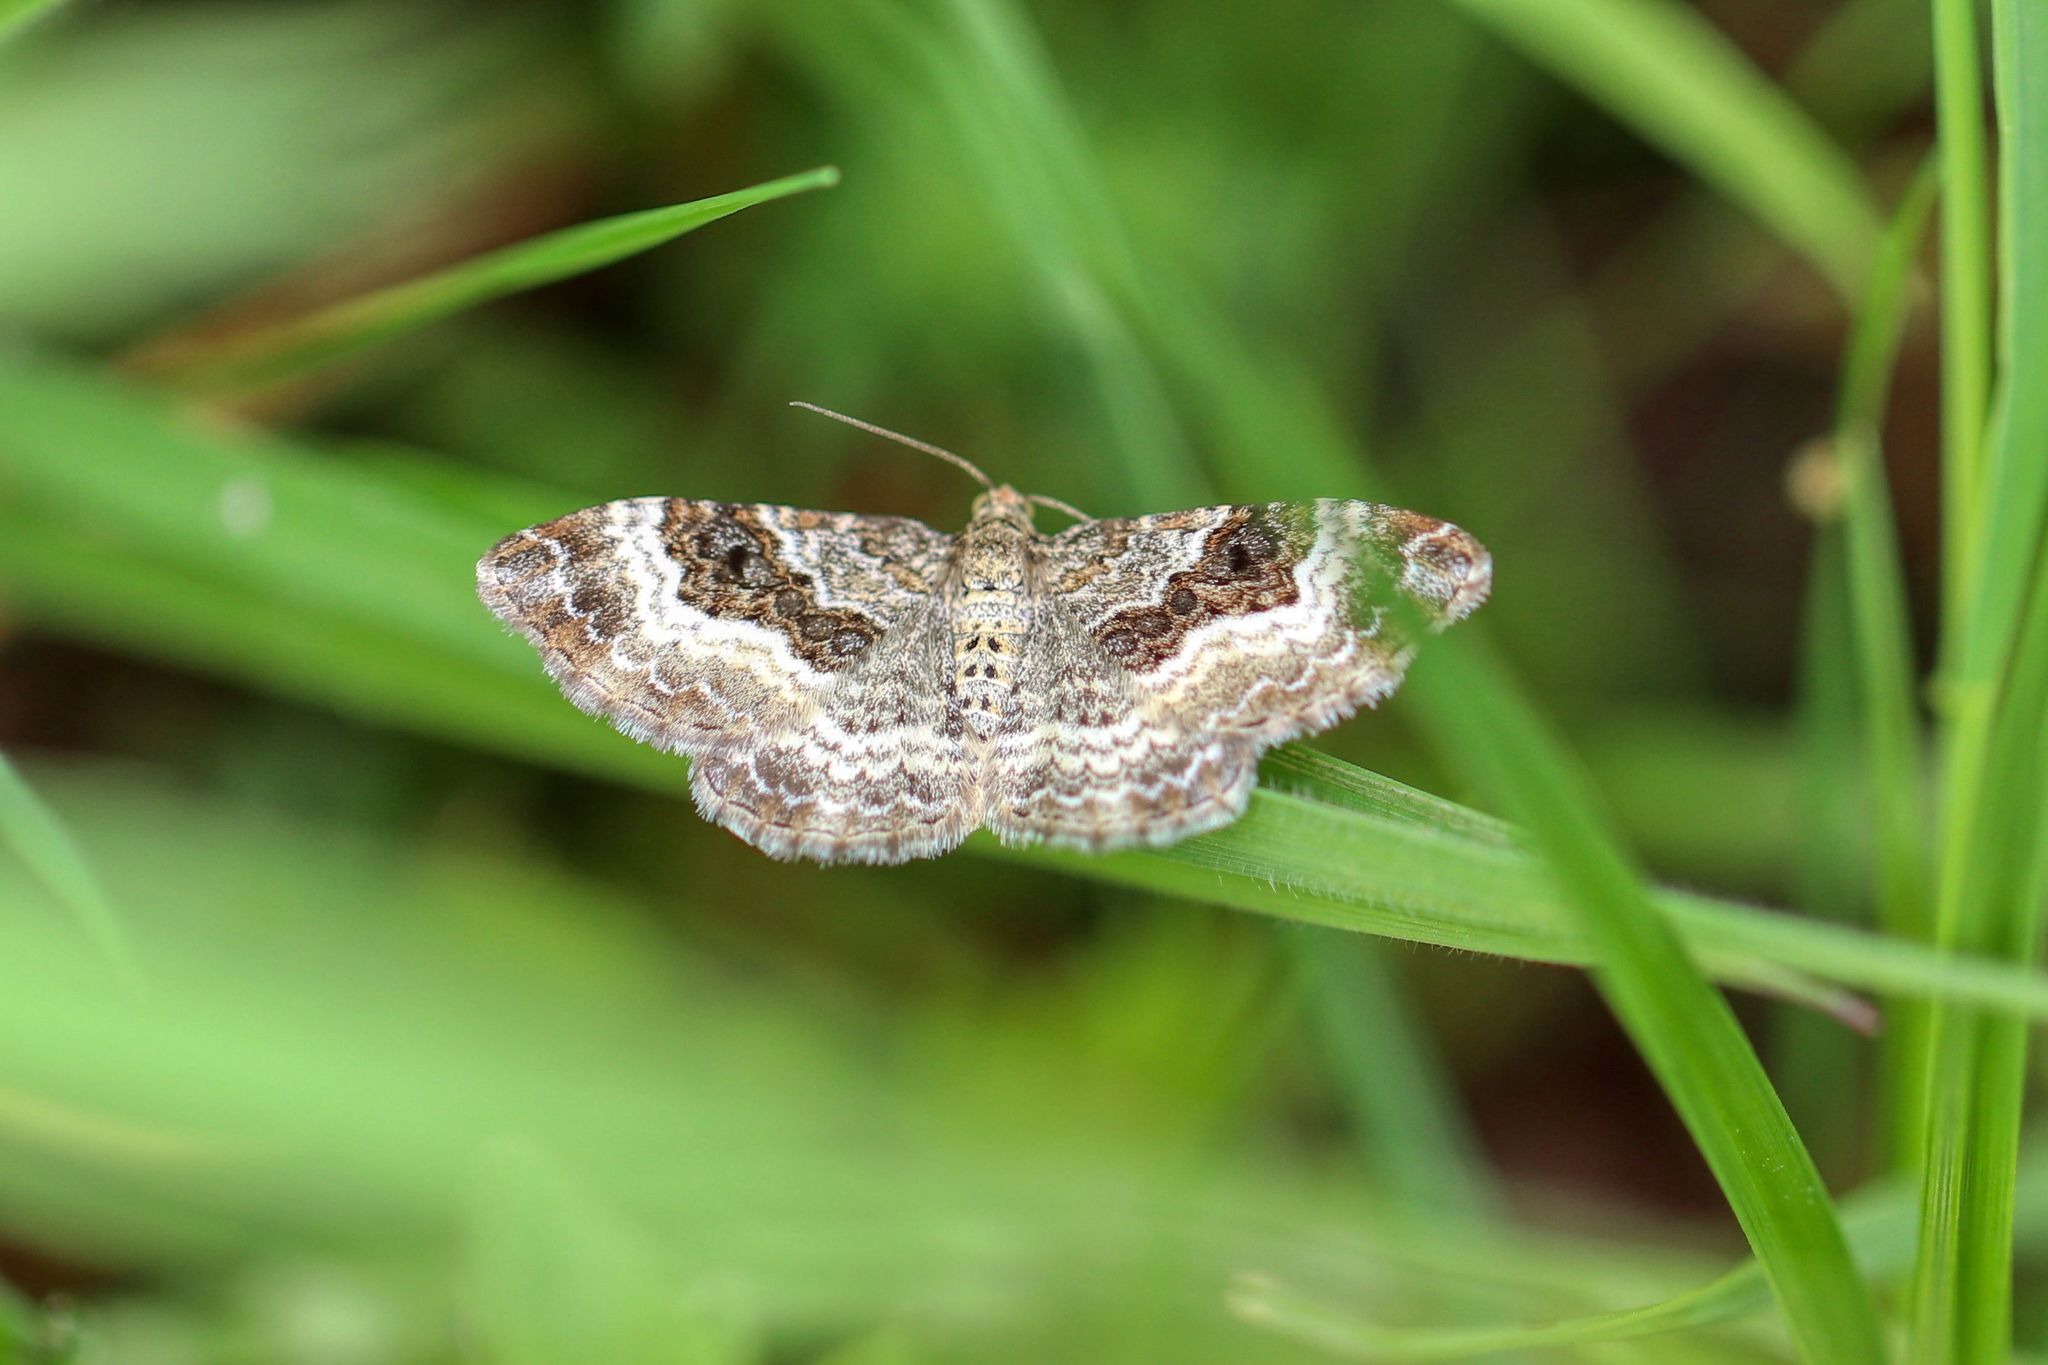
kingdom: Animalia
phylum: Arthropoda
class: Insecta
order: Lepidoptera
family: Geometridae
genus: Epirrhoe
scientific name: Epirrhoe alternata
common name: Common carpet
